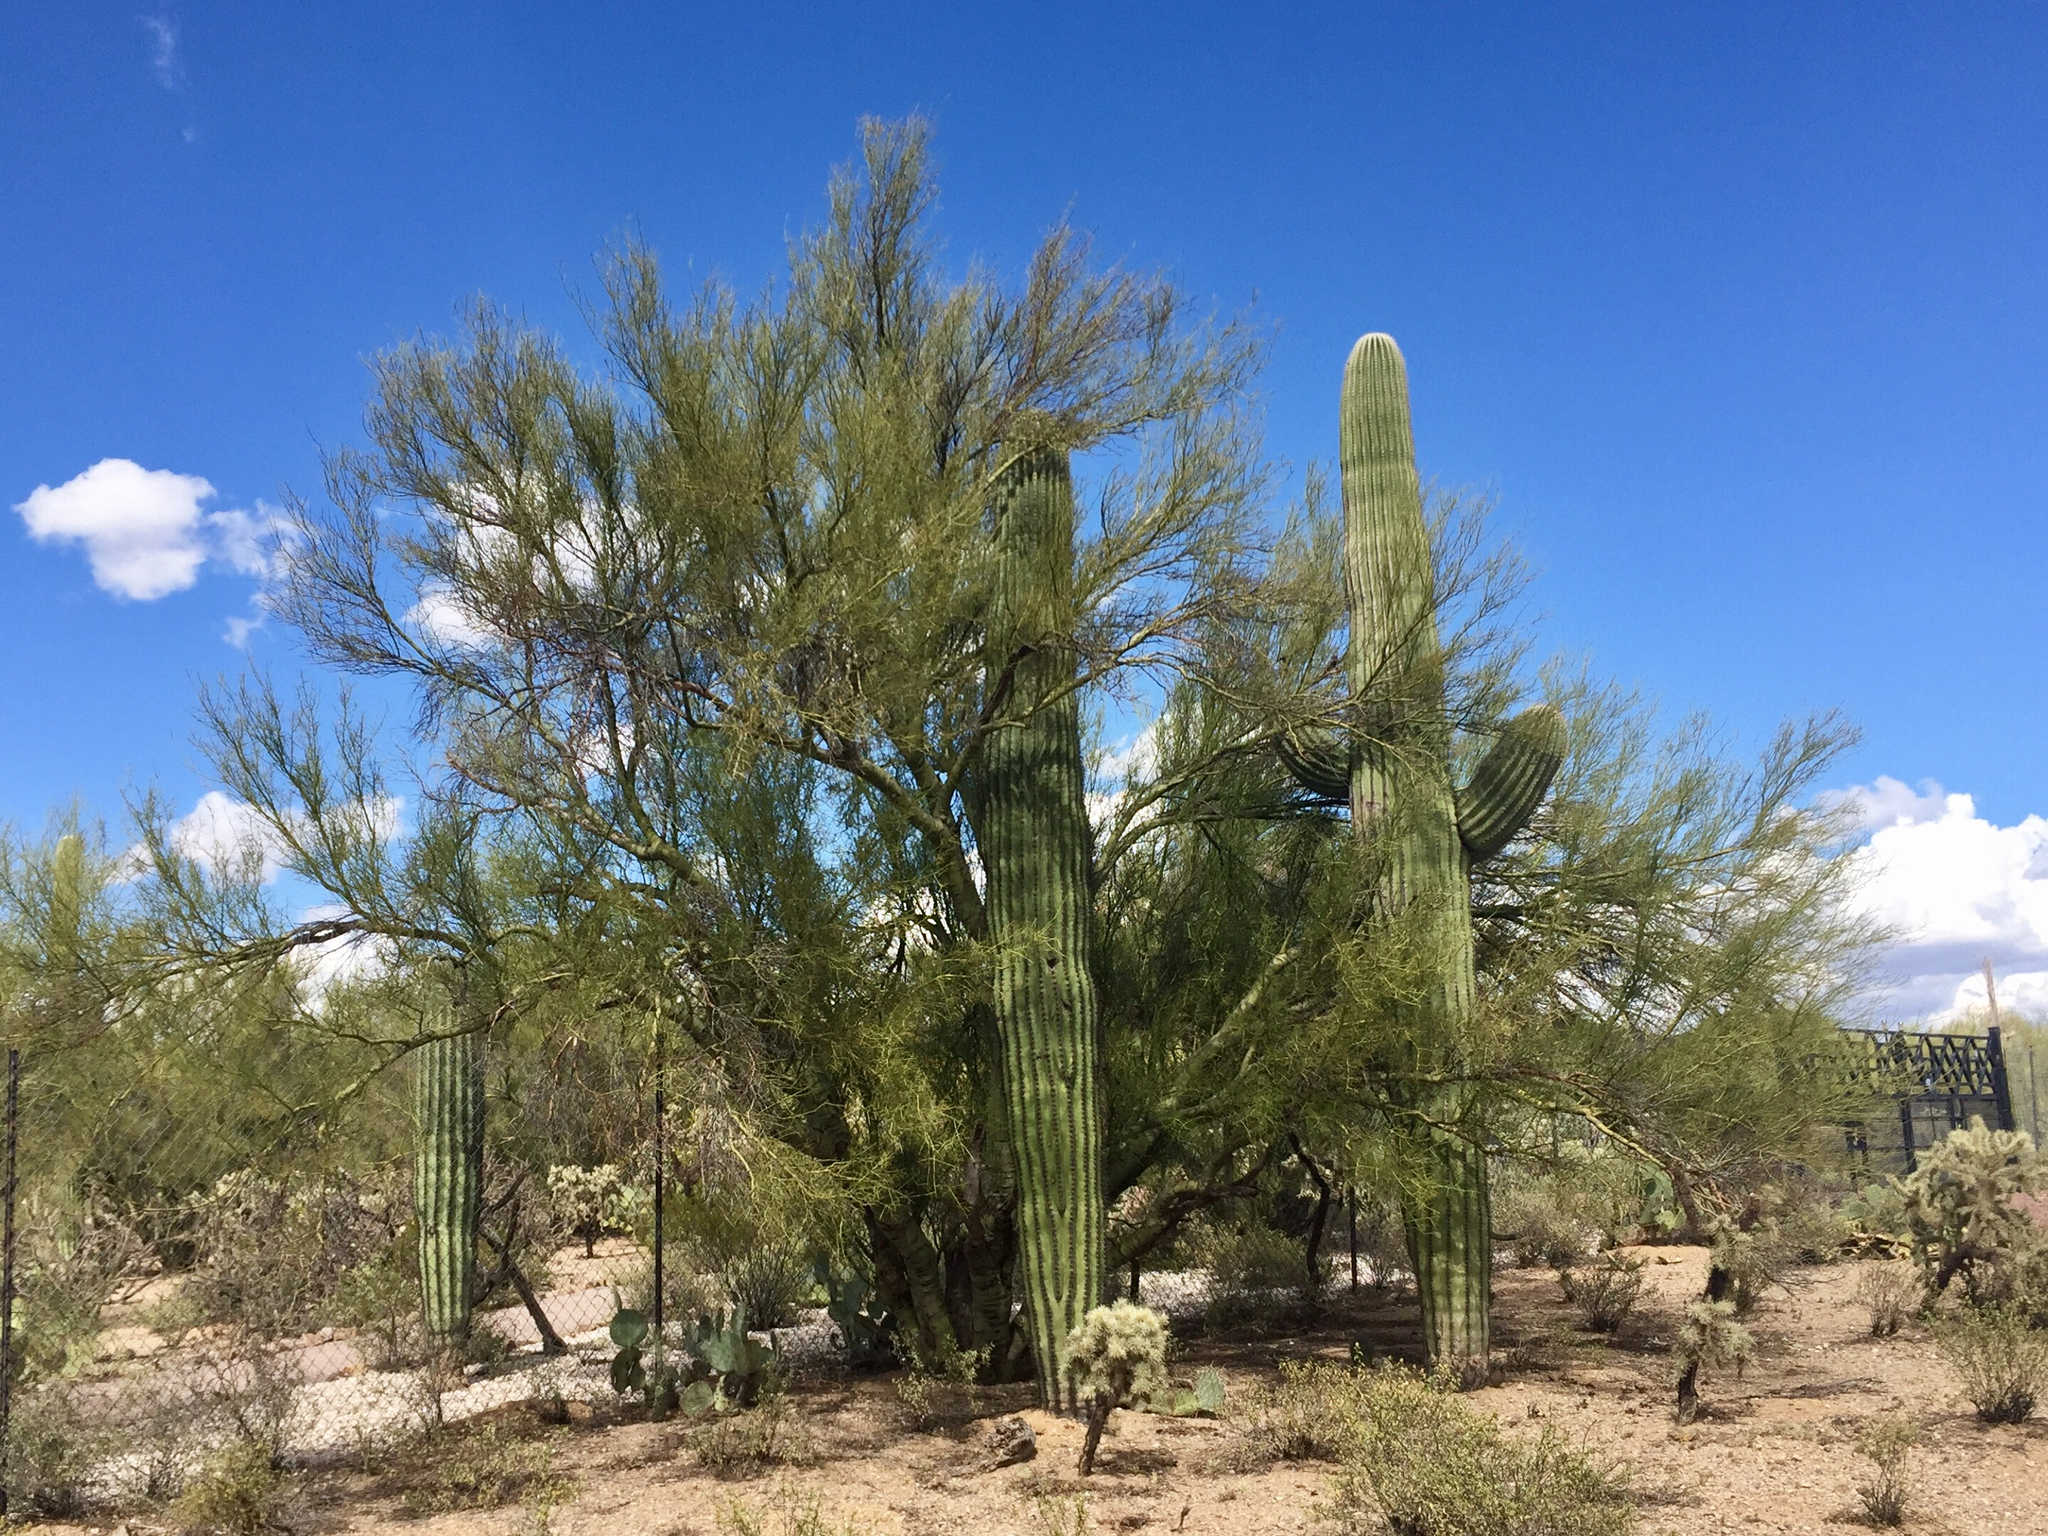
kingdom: Plantae
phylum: Tracheophyta
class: Magnoliopsida
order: Fabales
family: Fabaceae
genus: Parkinsonia
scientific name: Parkinsonia microphylla
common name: Yellow paloverde
